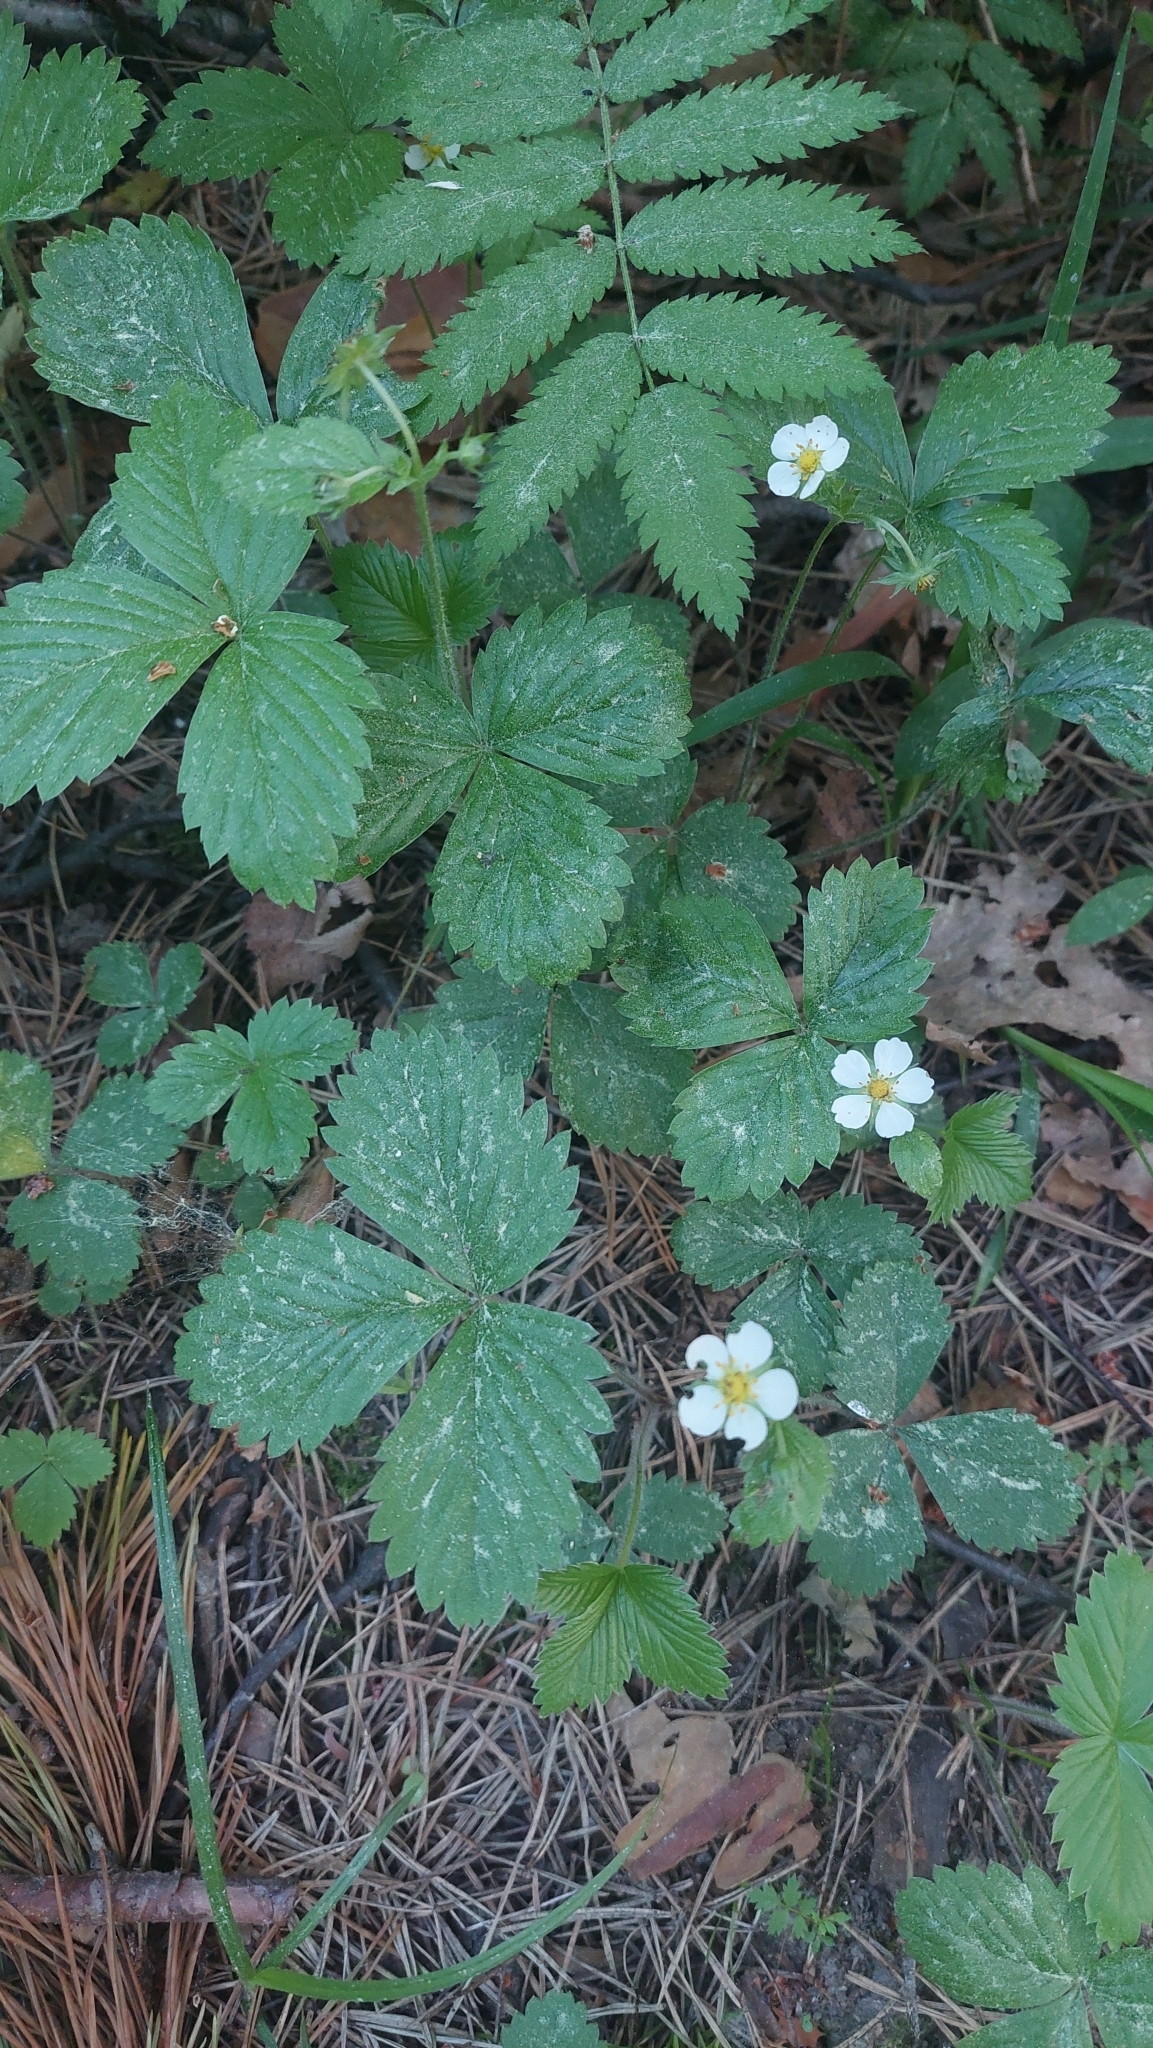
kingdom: Plantae
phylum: Tracheophyta
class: Magnoliopsida
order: Rosales
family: Rosaceae
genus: Fragaria
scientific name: Fragaria vesca
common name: Wild strawberry
